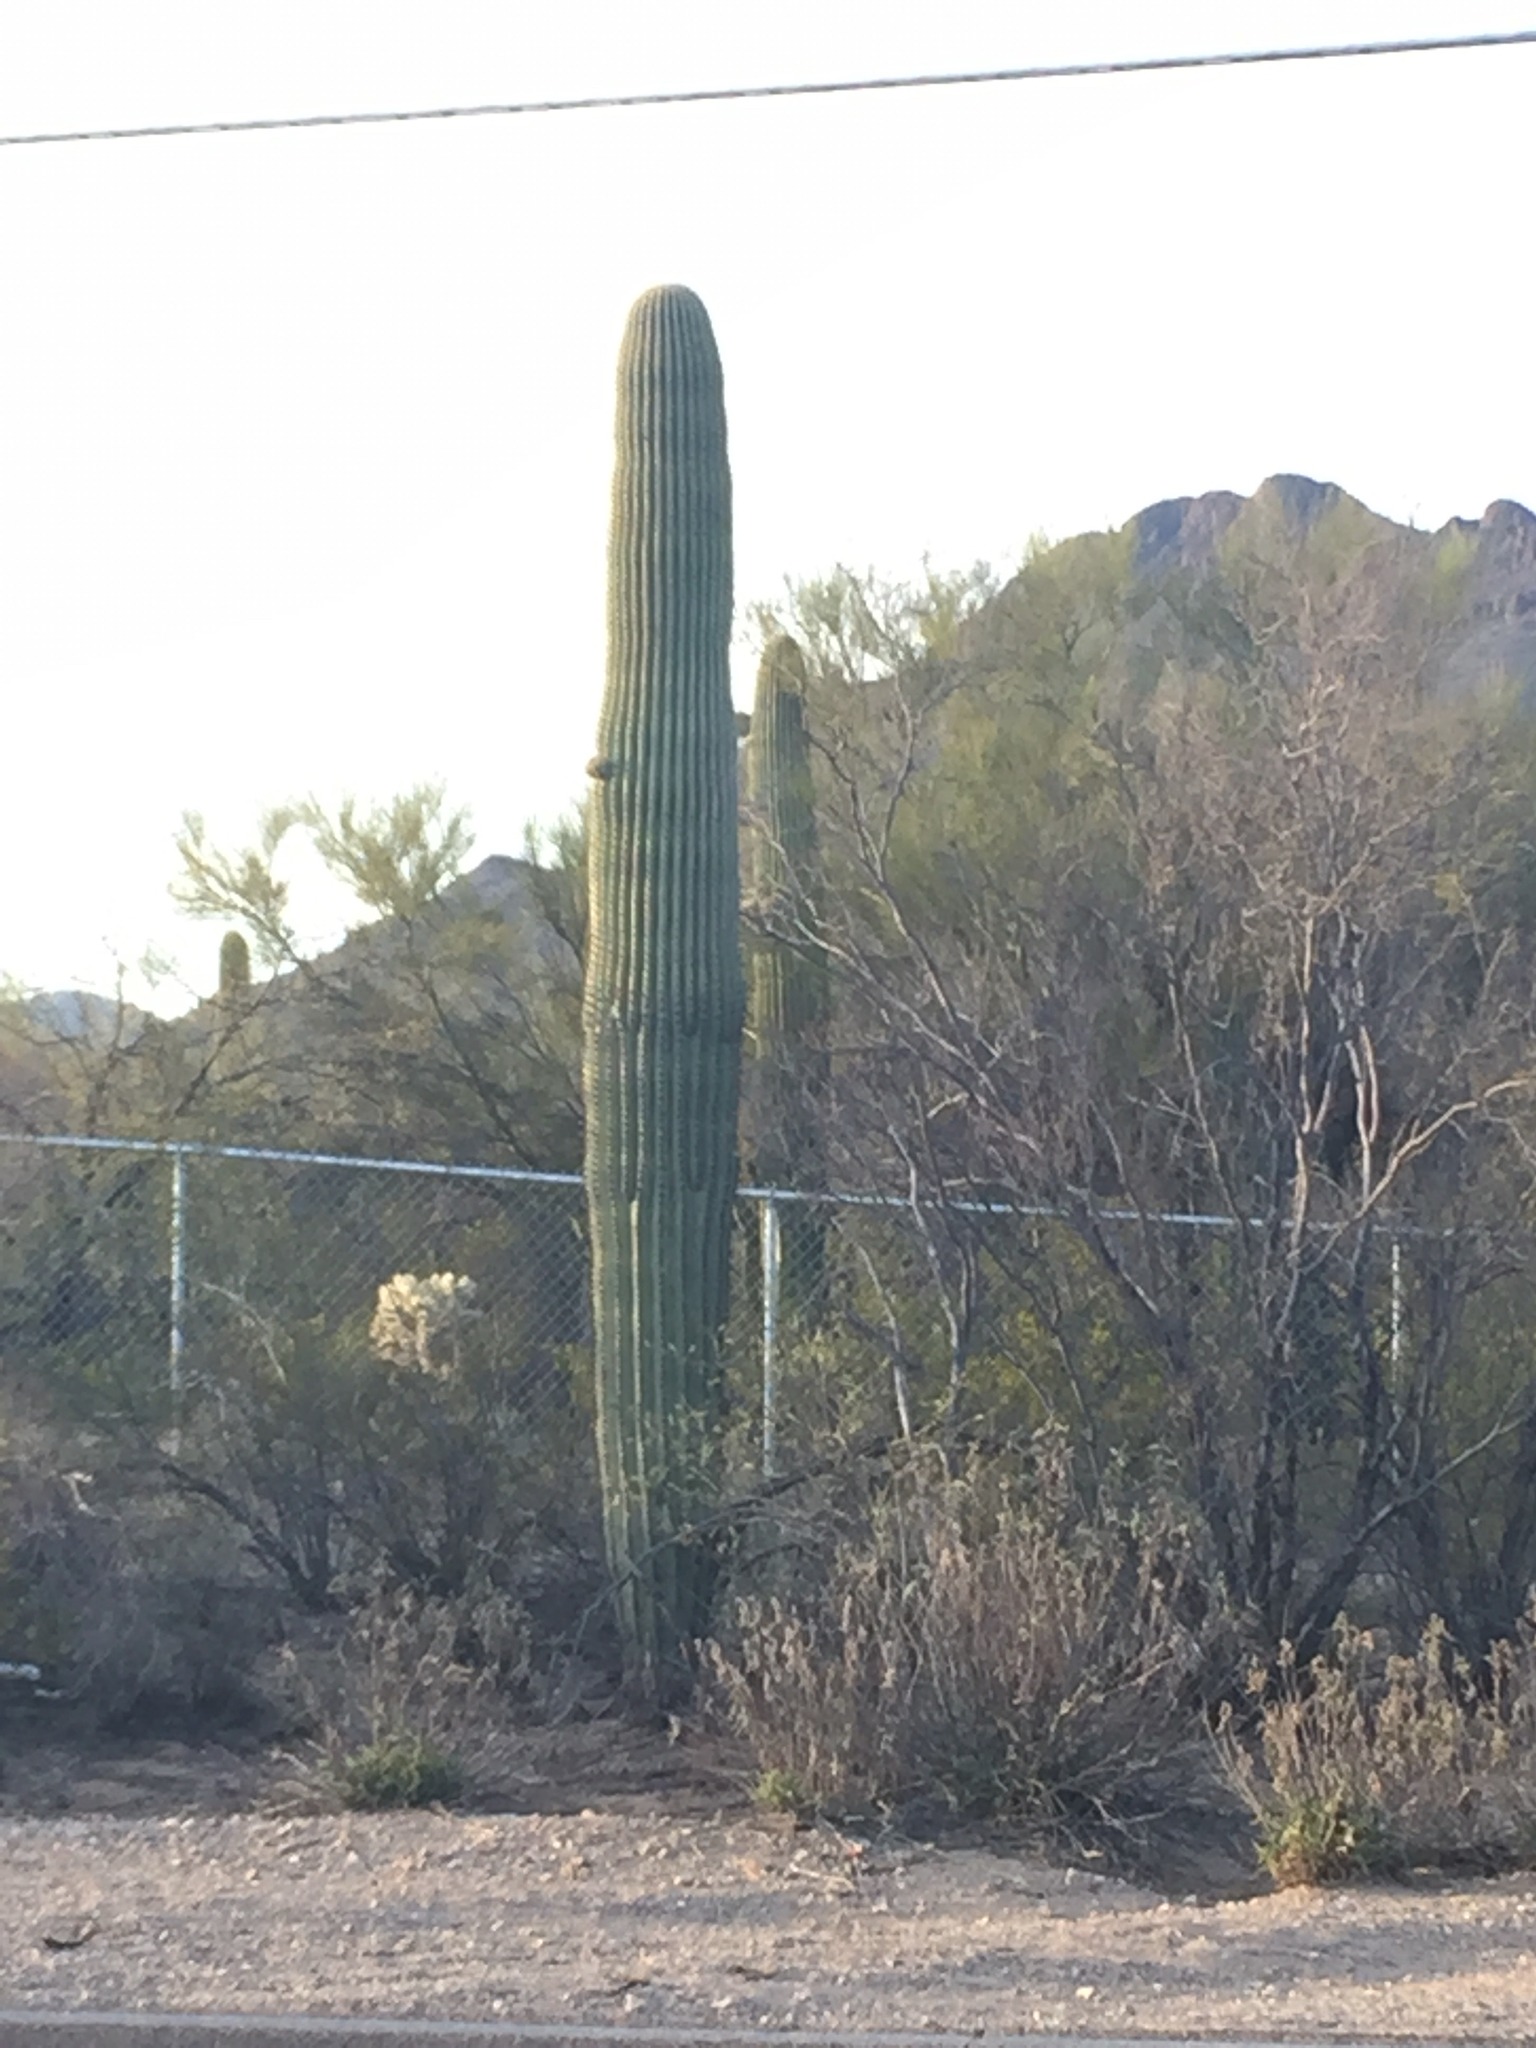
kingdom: Plantae
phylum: Tracheophyta
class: Magnoliopsida
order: Caryophyllales
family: Cactaceae
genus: Carnegiea
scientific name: Carnegiea gigantea
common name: Saguaro
